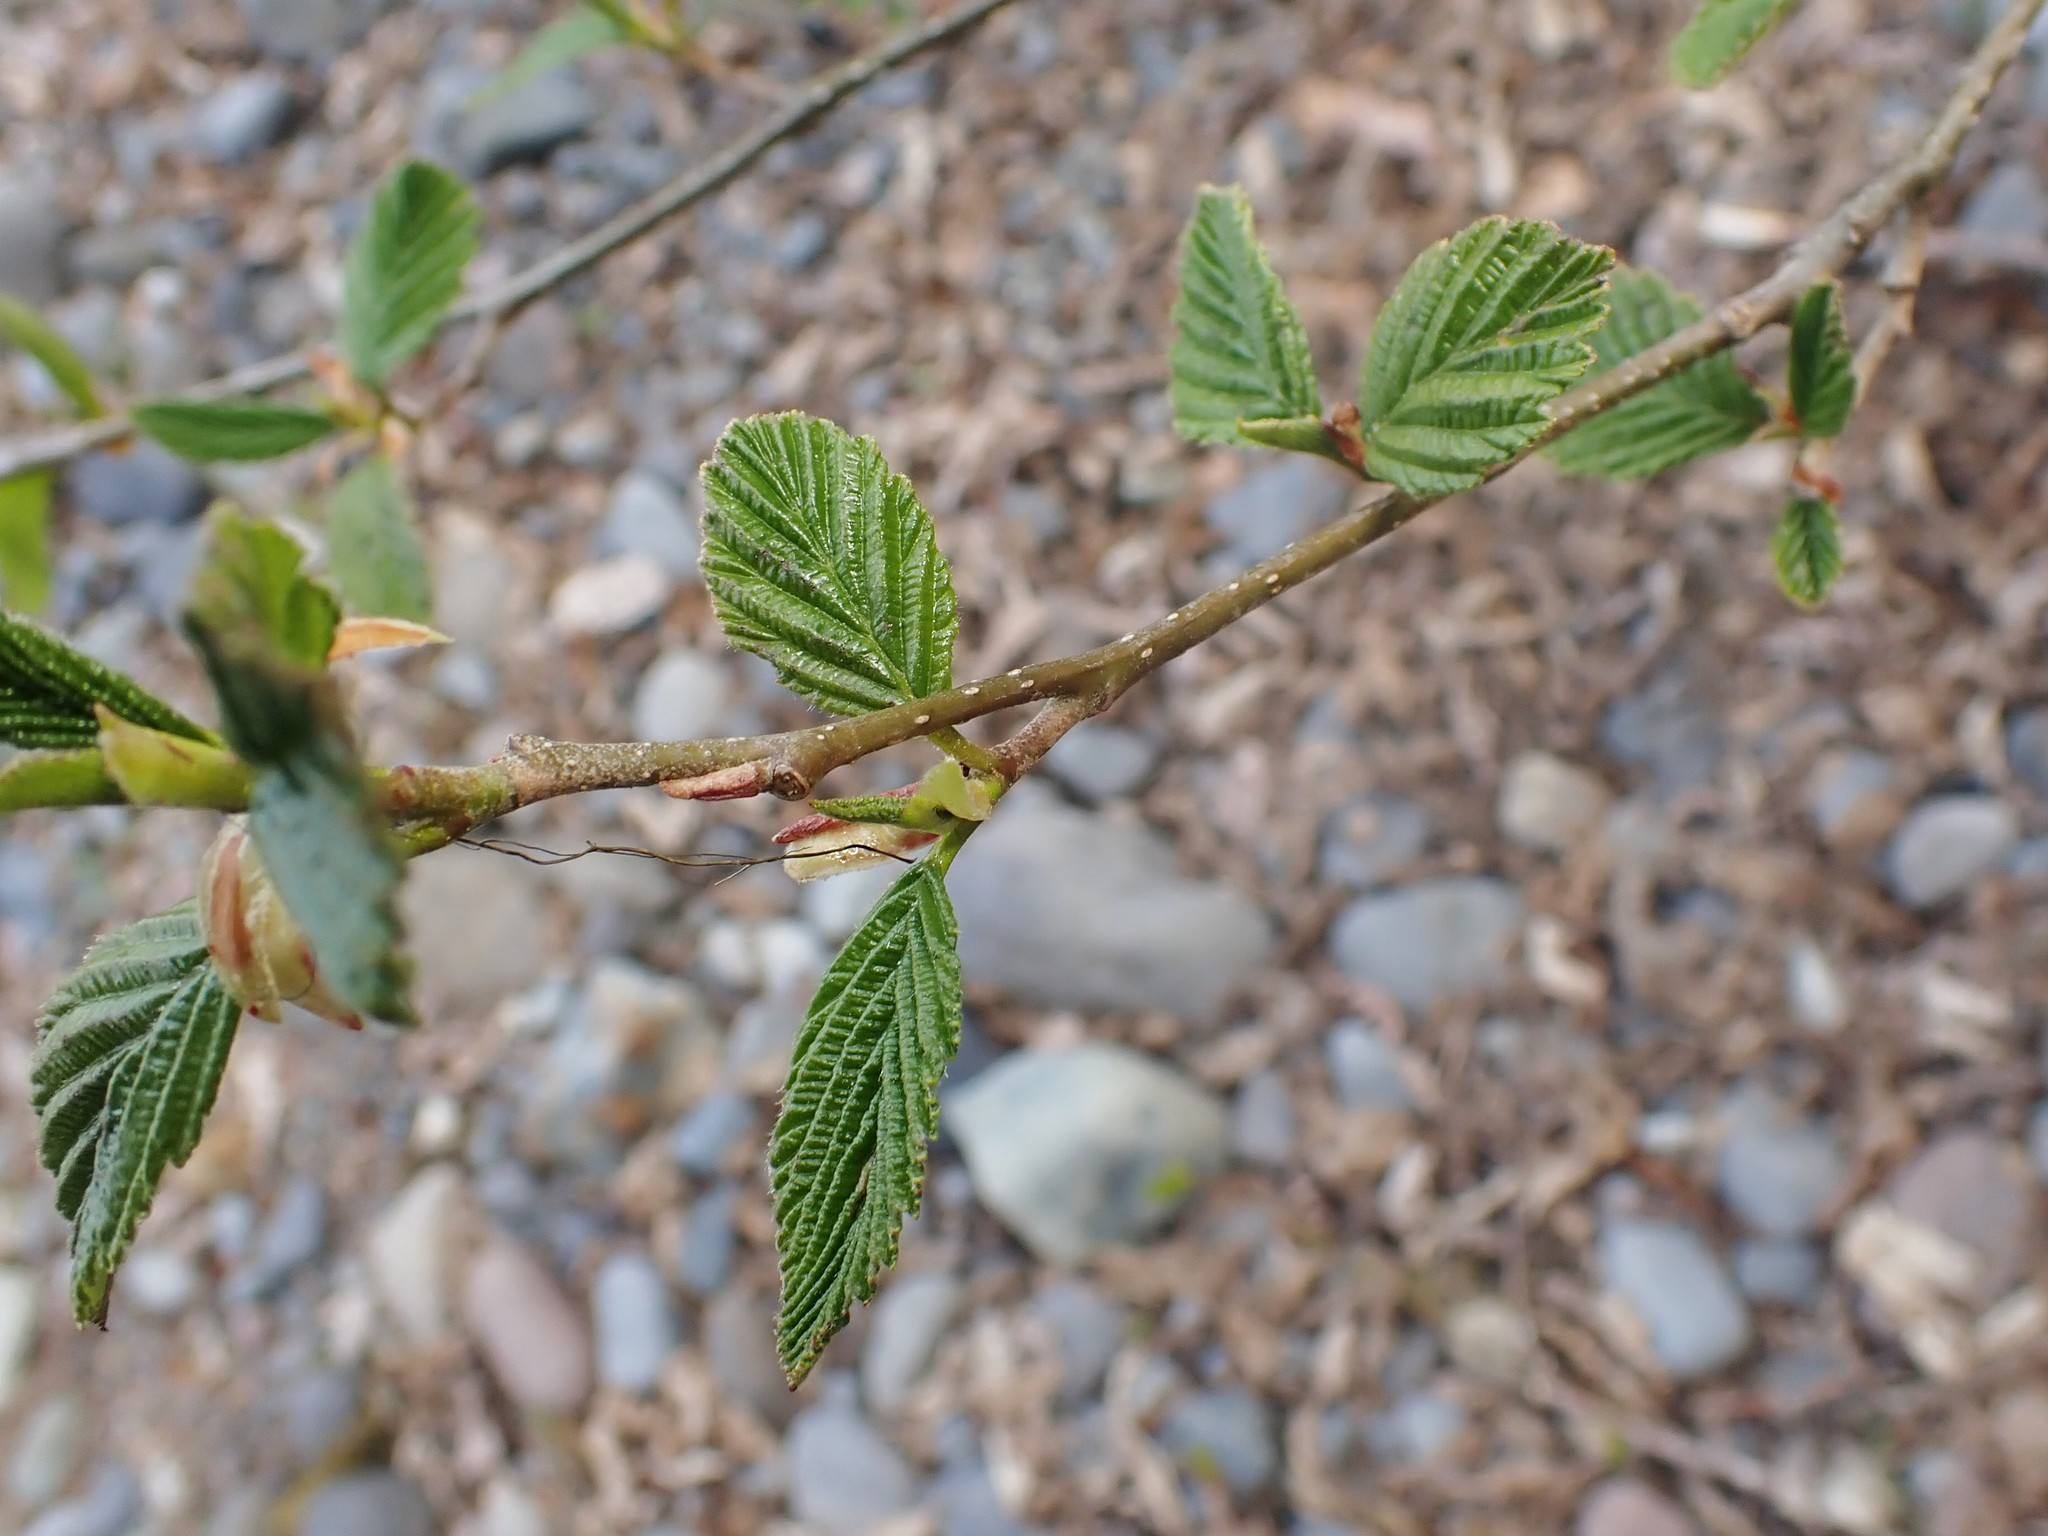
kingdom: Plantae
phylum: Tracheophyta
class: Magnoliopsida
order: Fagales
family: Betulaceae
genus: Alnus
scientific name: Alnus rubra
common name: Red alder
